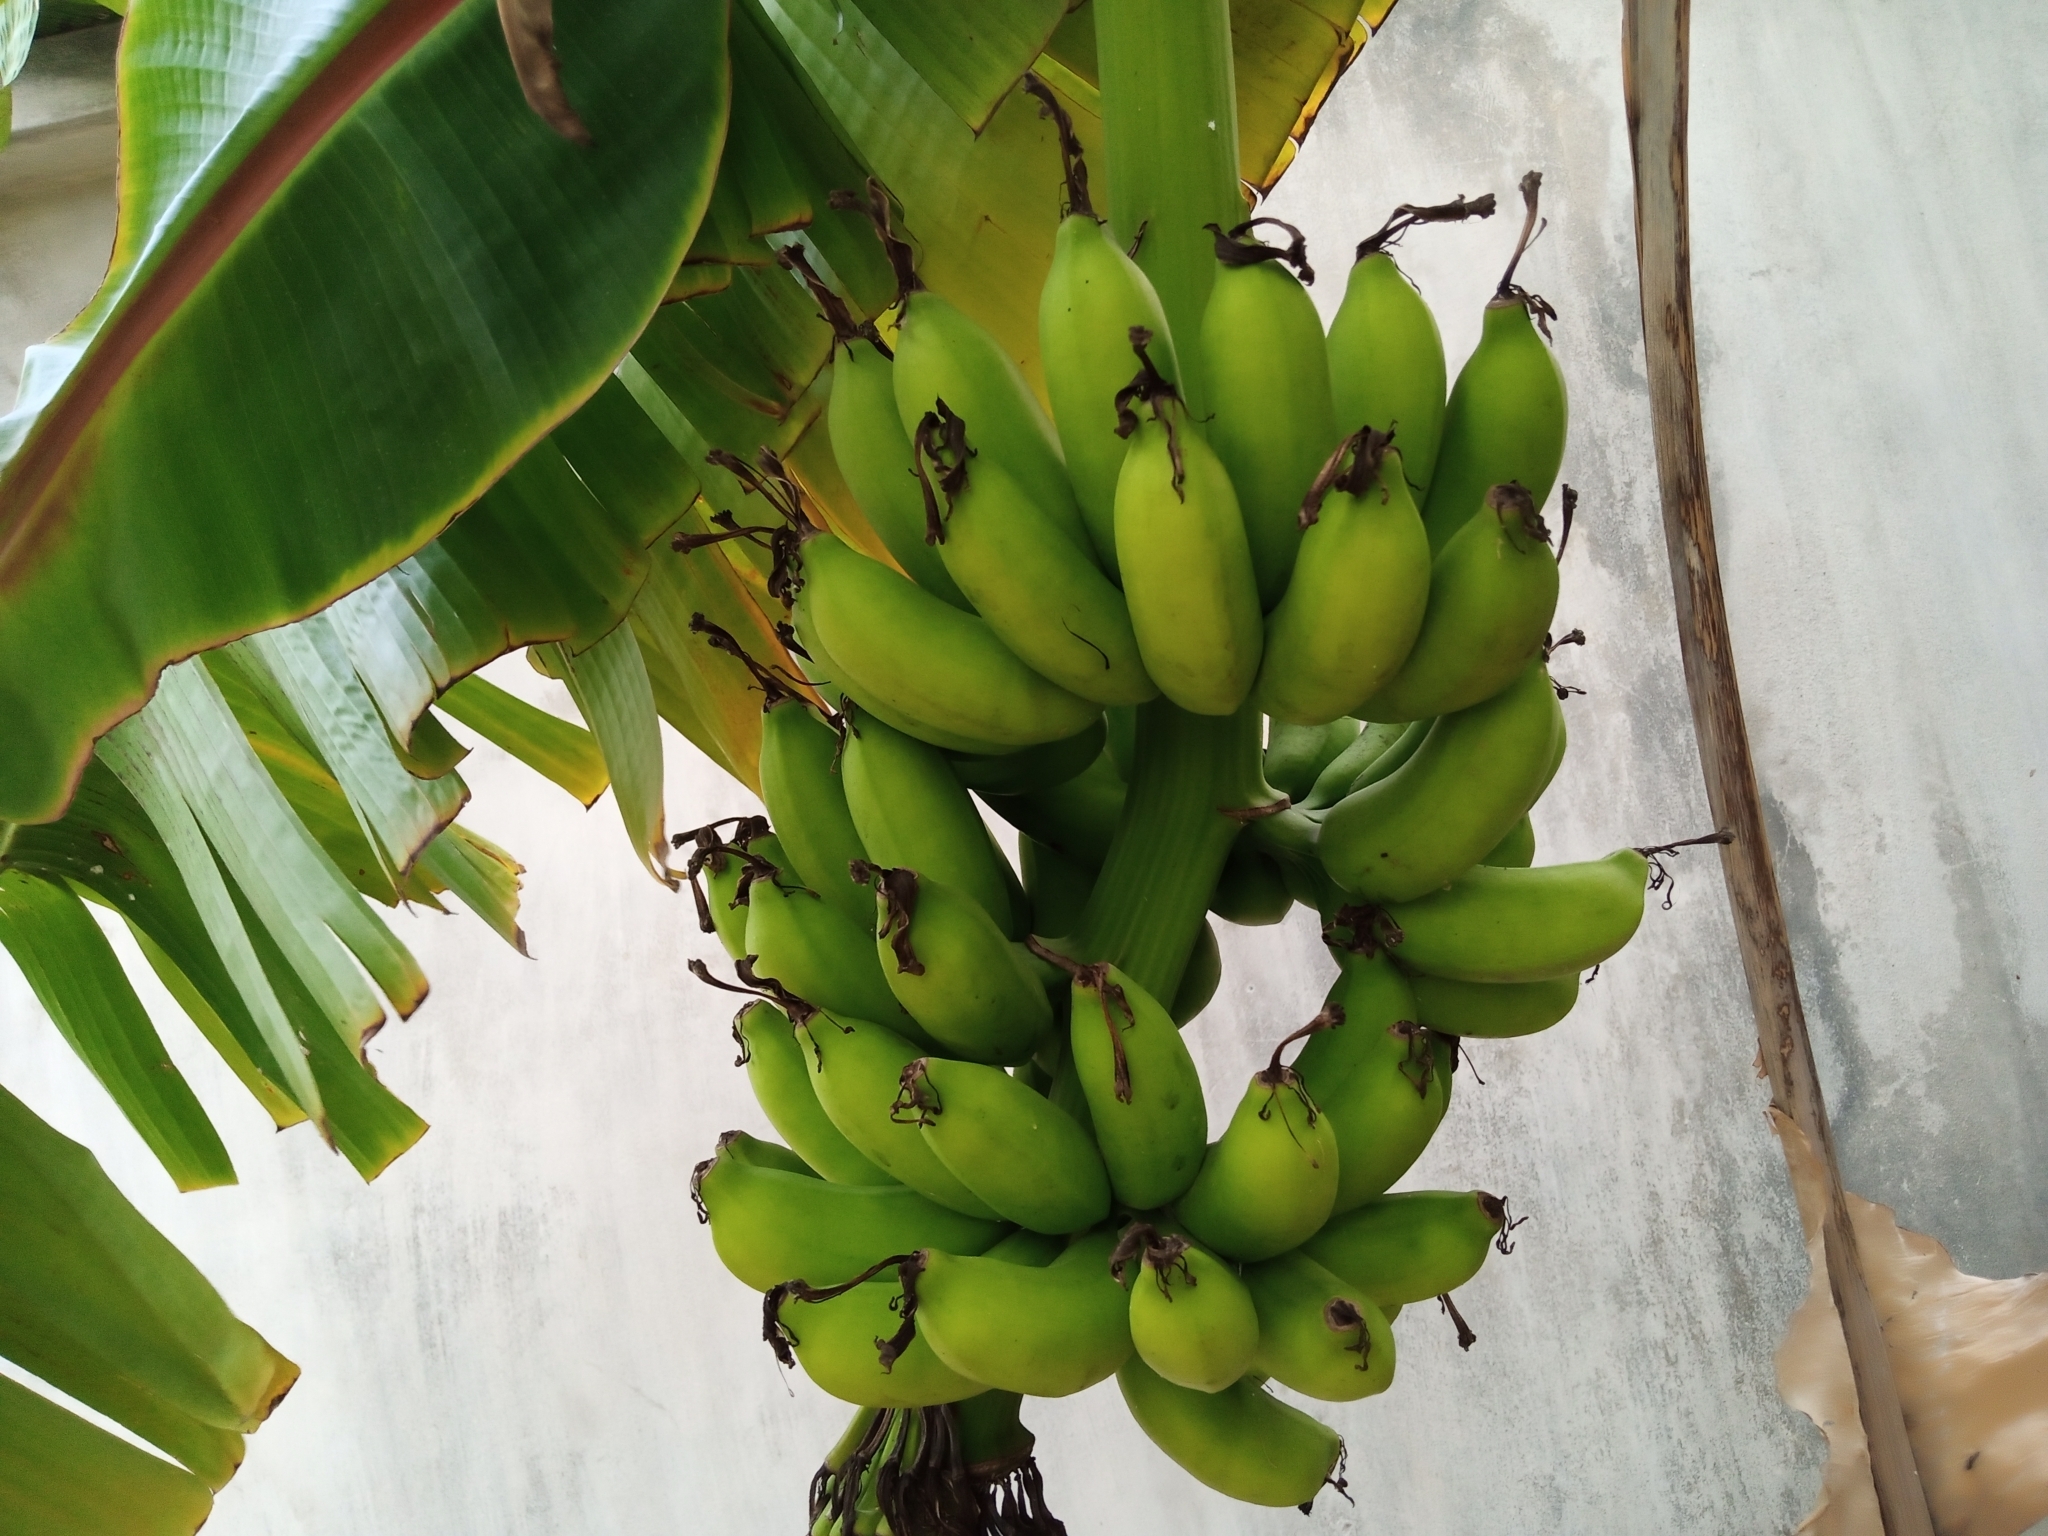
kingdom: Plantae
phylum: Tracheophyta
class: Liliopsida
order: Zingiberales
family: Musaceae
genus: Musa
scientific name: Musa paradisiaca
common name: French plantain
